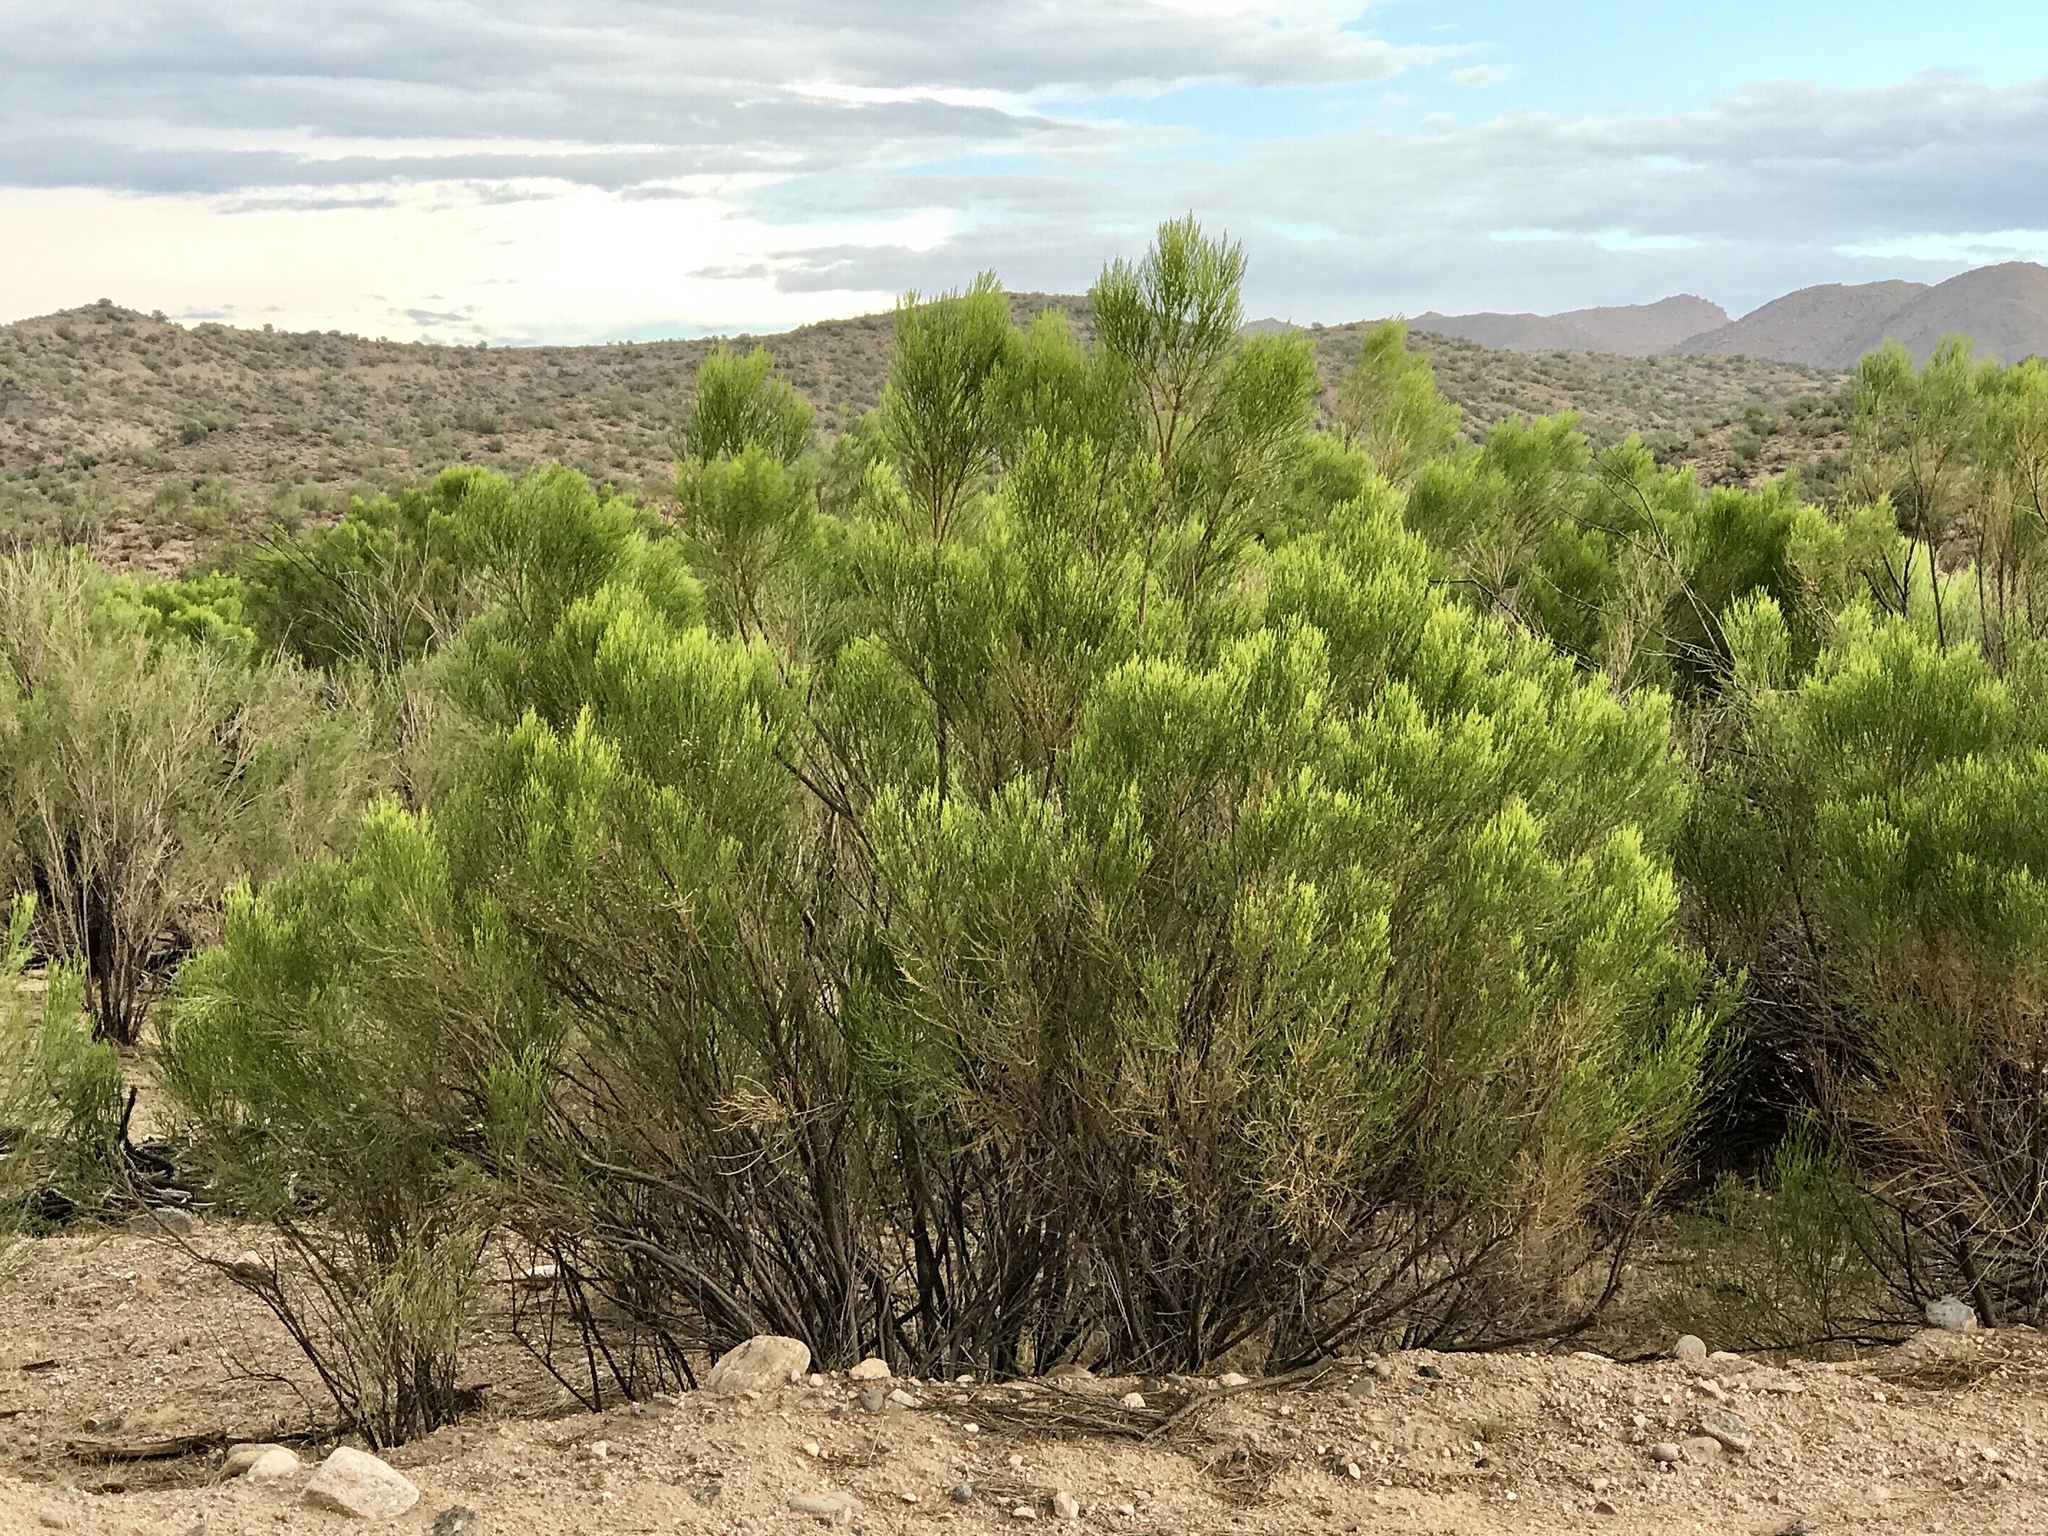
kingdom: Plantae
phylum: Tracheophyta
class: Magnoliopsida
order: Asterales
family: Asteraceae
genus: Baccharis
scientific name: Baccharis sarothroides
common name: Desert-broom
